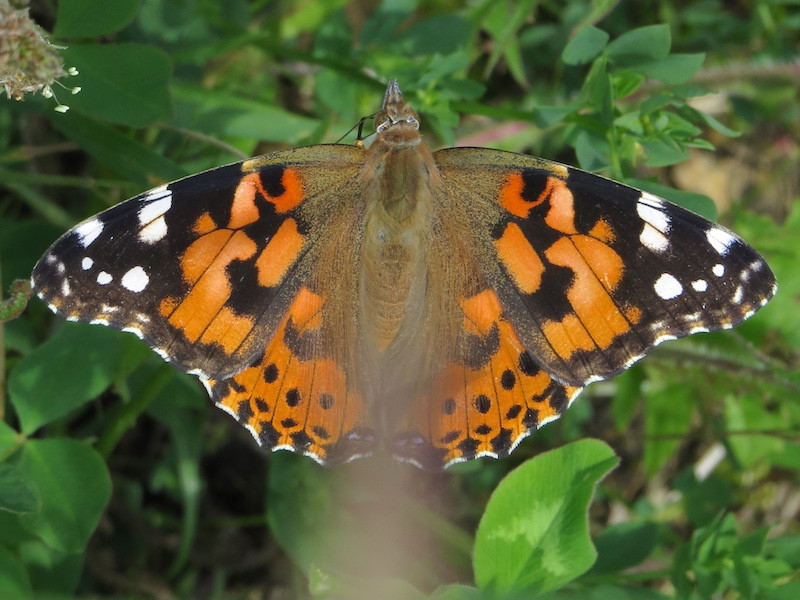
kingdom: Animalia
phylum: Arthropoda
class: Insecta
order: Lepidoptera
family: Nymphalidae
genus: Vanessa
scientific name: Vanessa cardui
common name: Painted lady
